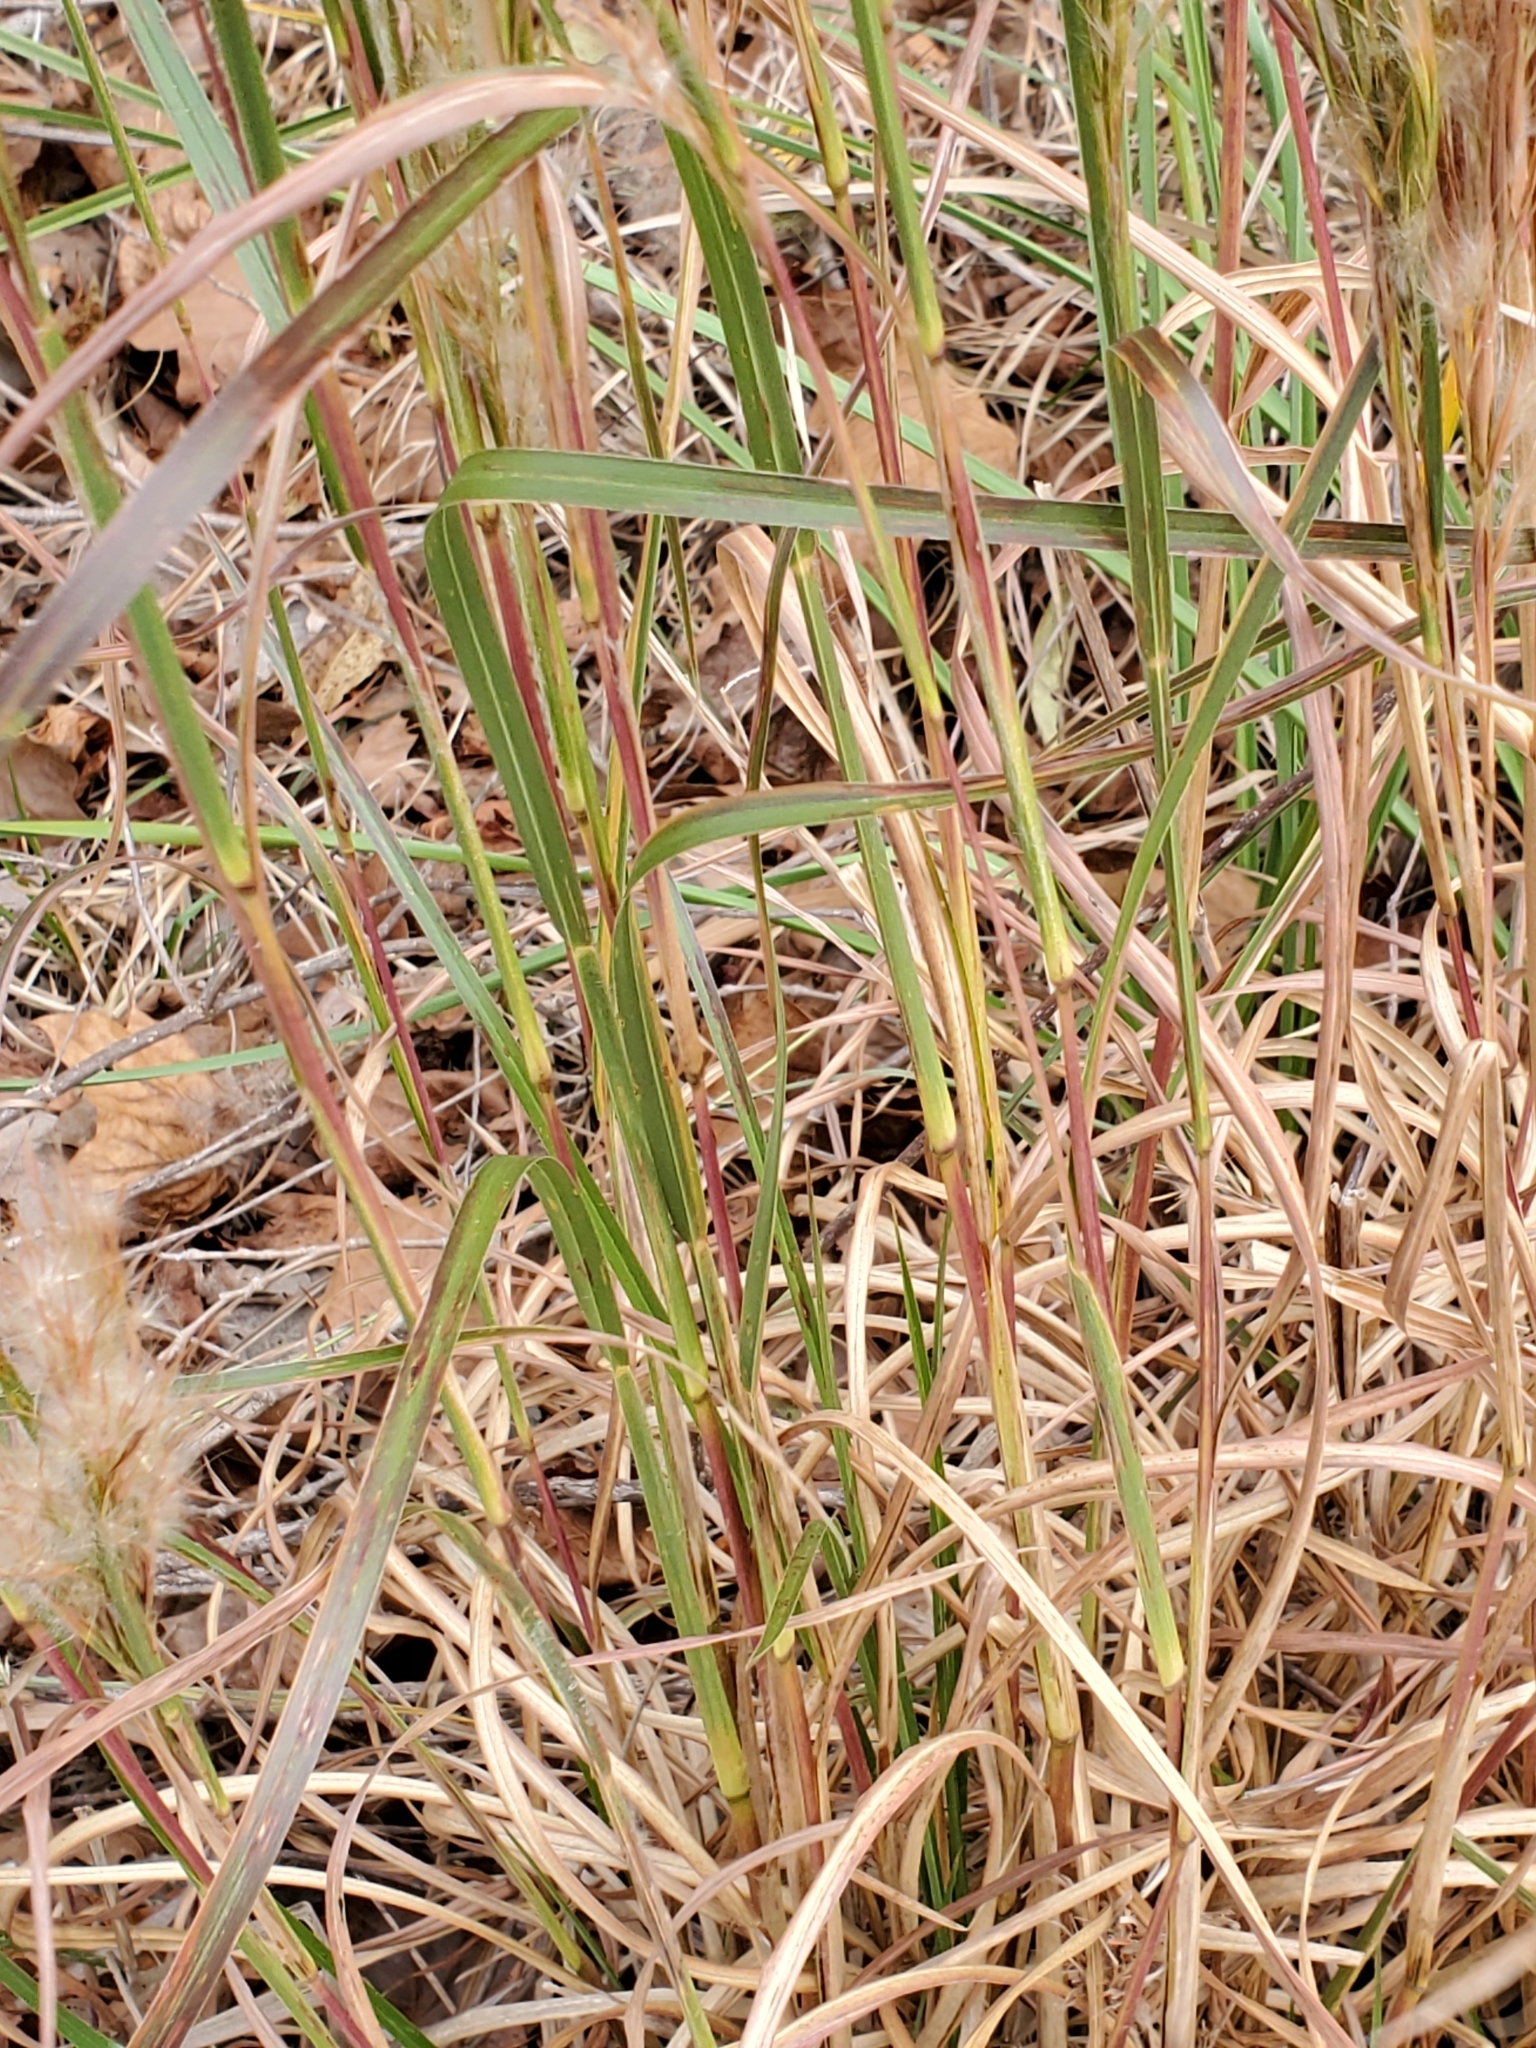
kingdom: Plantae
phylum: Tracheophyta
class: Liliopsida
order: Poales
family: Poaceae
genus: Andropogon
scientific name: Andropogon tenuispatheus
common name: Bushy bluestem
